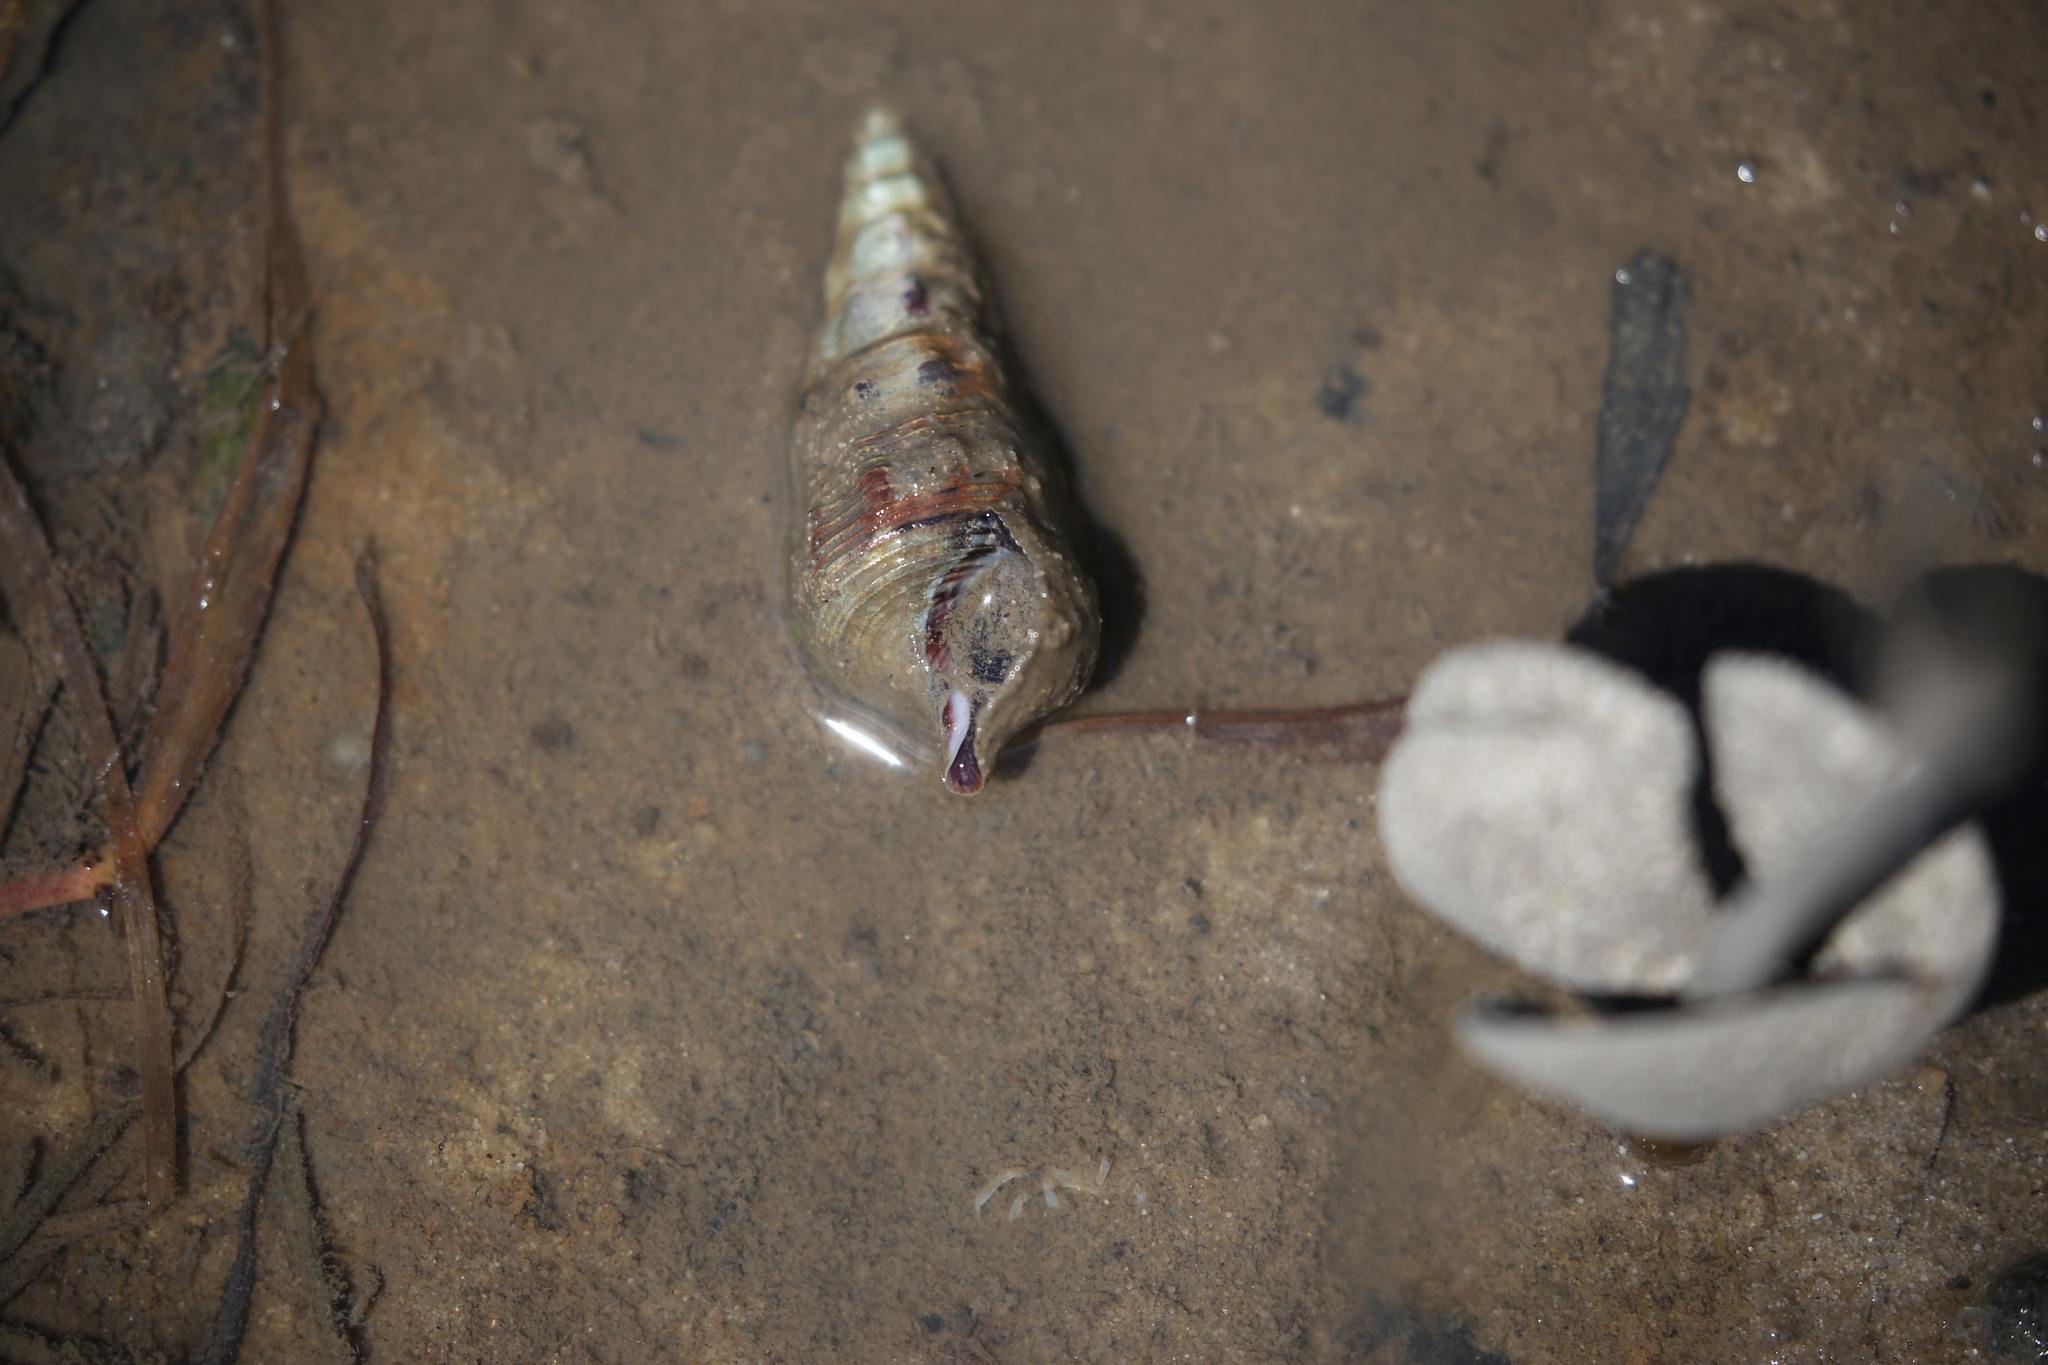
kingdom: Animalia
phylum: Mollusca
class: Gastropoda
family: Batillariidae
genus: Pyrazus
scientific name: Pyrazus ebeninus
